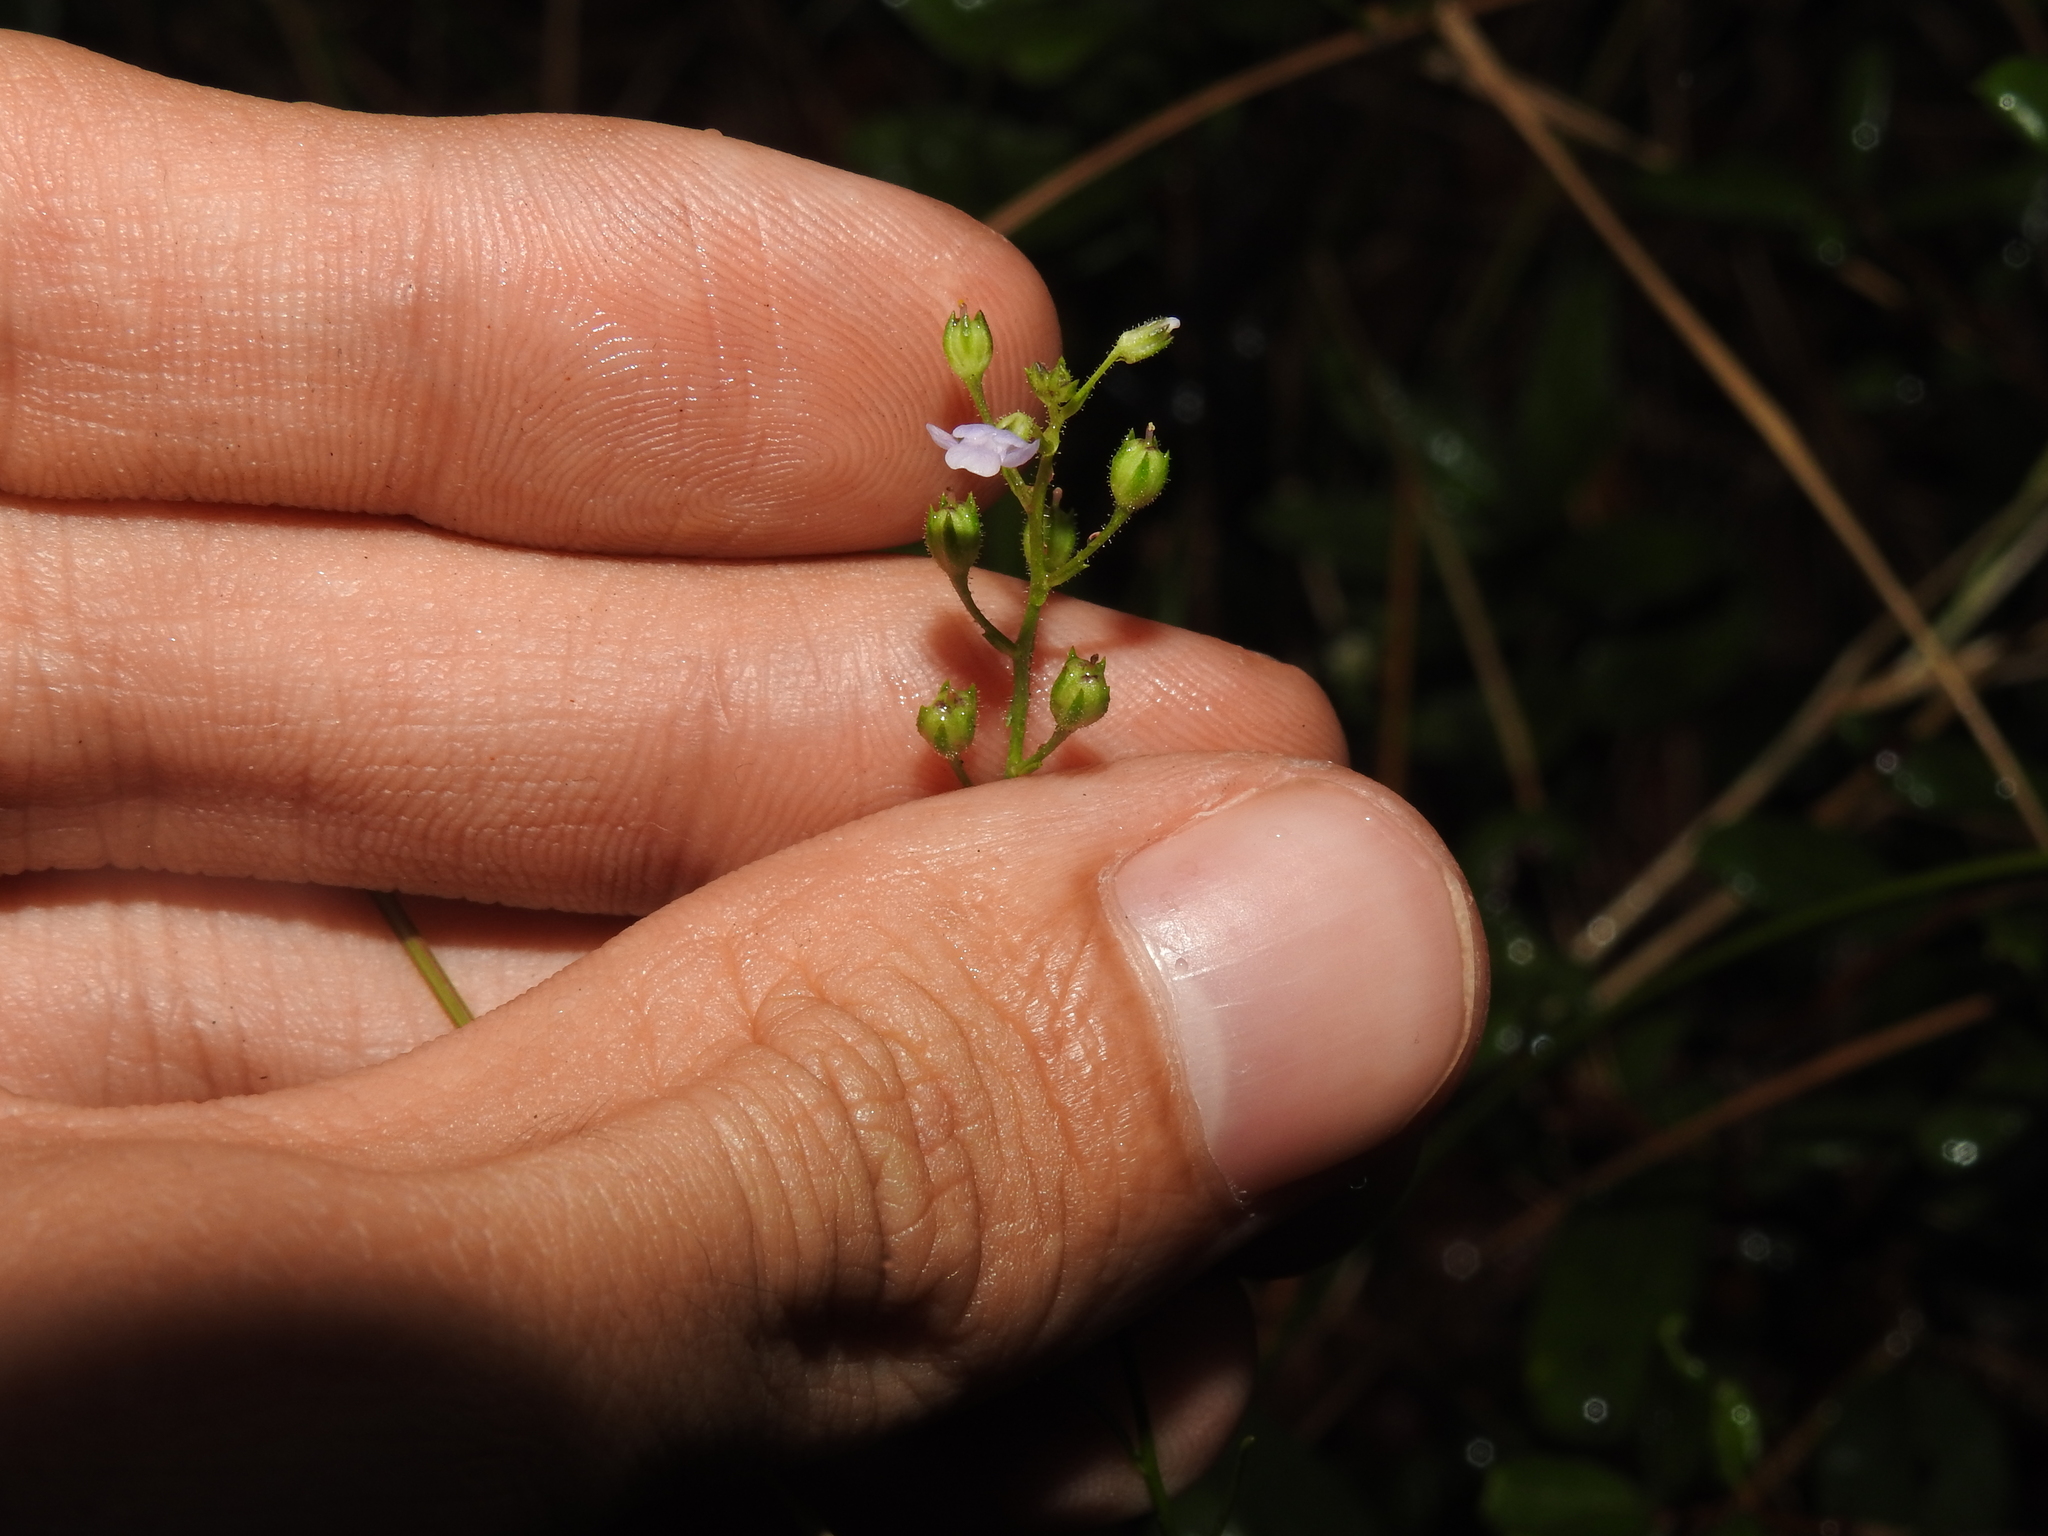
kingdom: Plantae
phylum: Tracheophyta
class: Magnoliopsida
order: Lamiales
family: Plantaginaceae
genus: Nuttallanthus
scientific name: Nuttallanthus canadensis
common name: Blue toadflax
